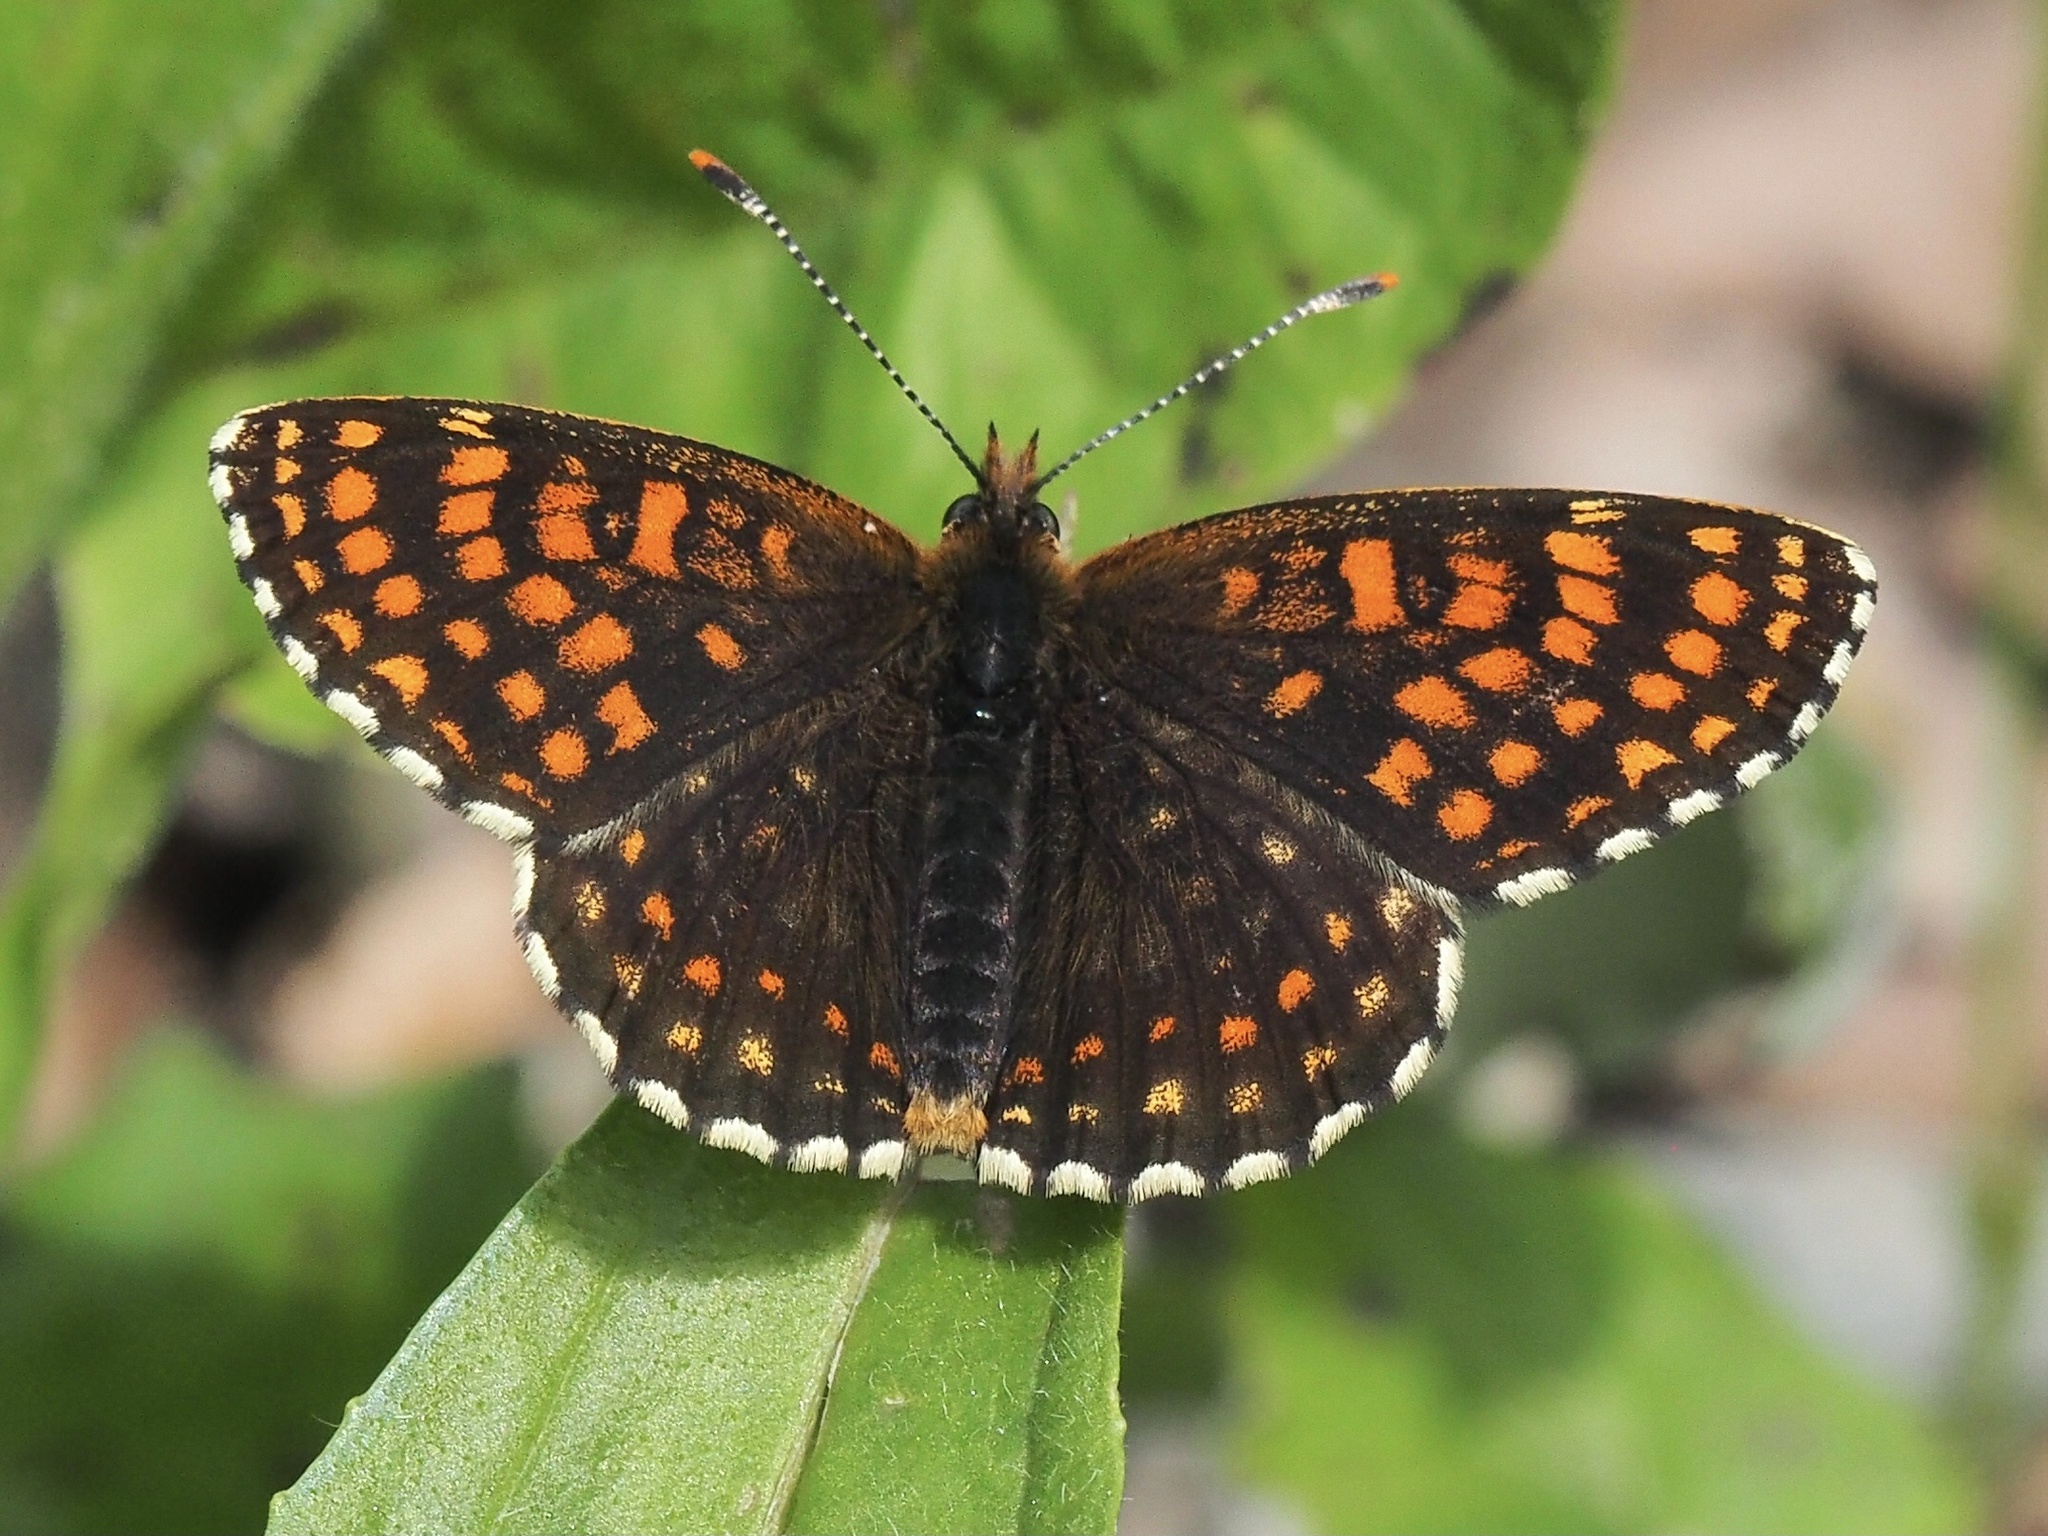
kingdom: Animalia
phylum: Arthropoda
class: Insecta
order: Lepidoptera
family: Nymphalidae
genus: Melitaea
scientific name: Melitaea diamina
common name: False heath fritillary
